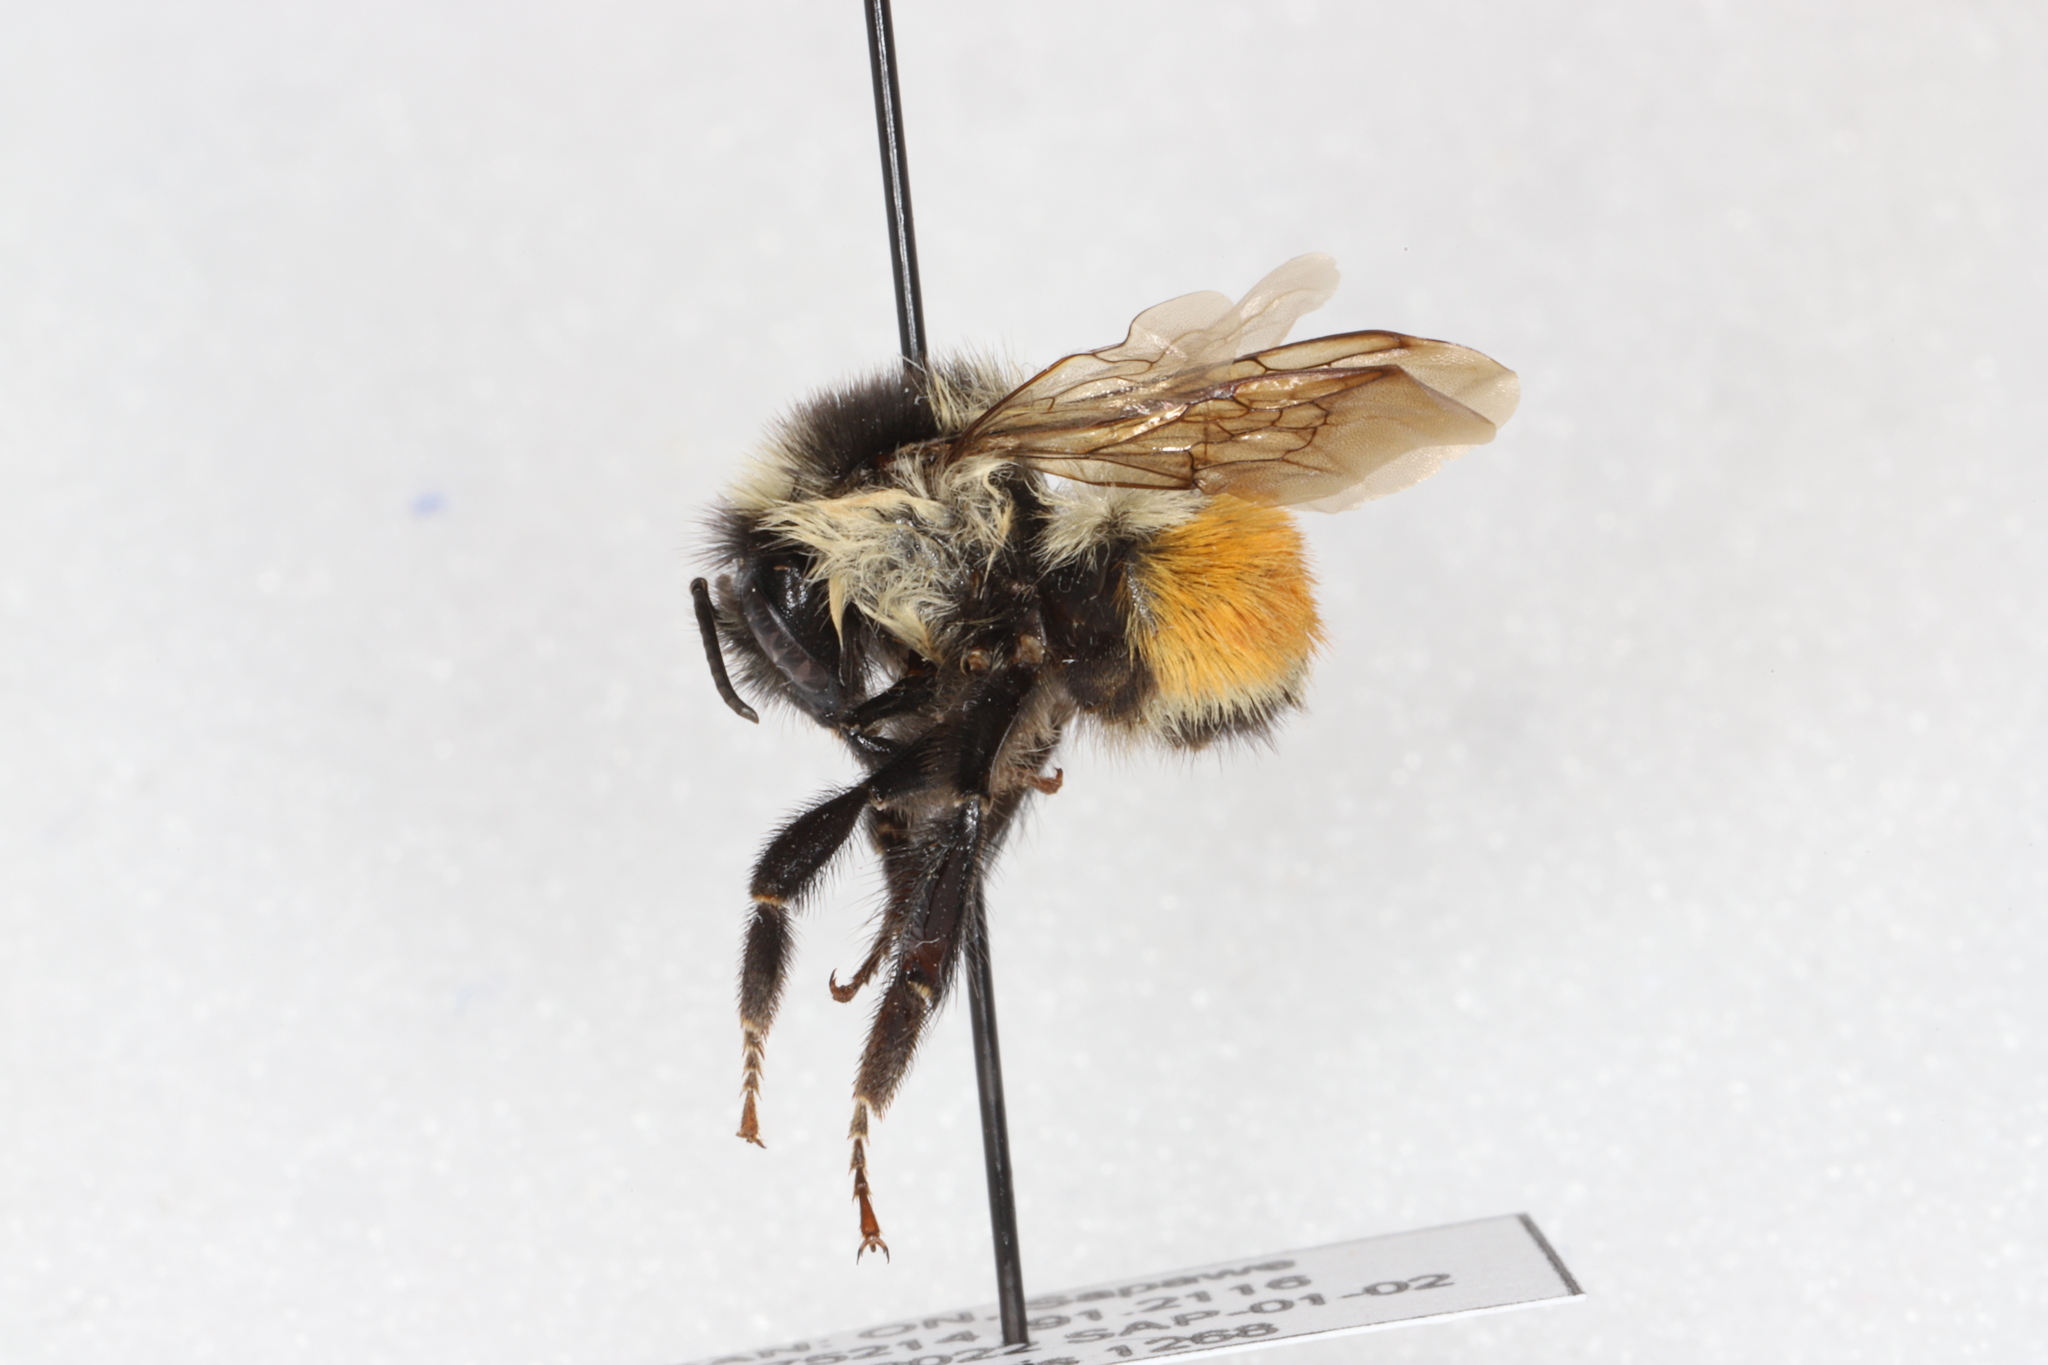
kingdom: Animalia
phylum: Arthropoda
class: Insecta
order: Hymenoptera
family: Apidae
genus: Bombus
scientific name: Bombus ternarius
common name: Tri-colored bumble bee
